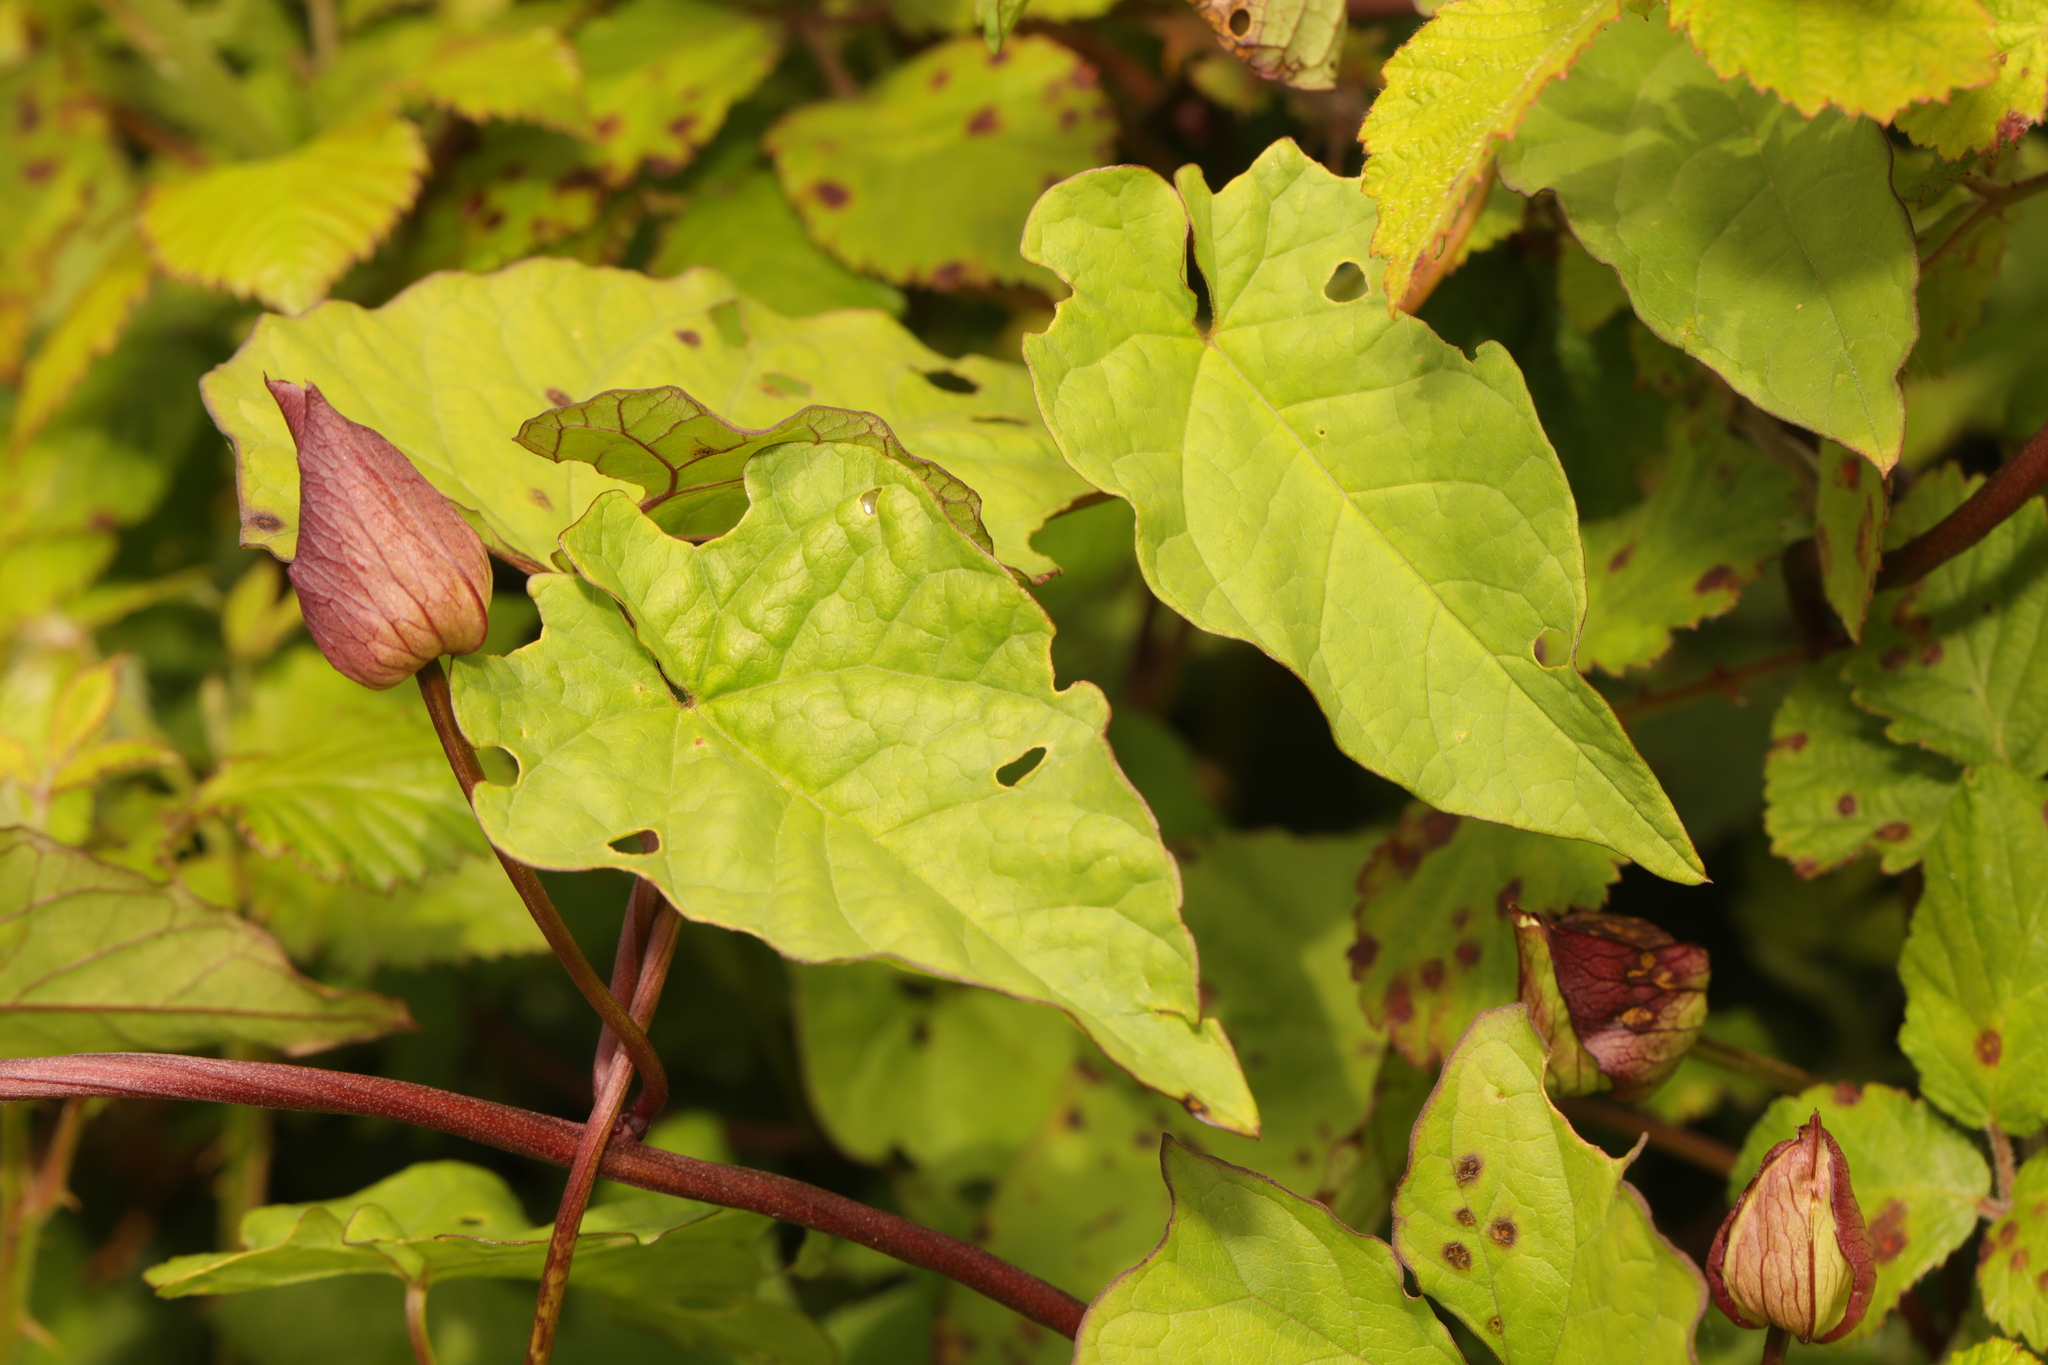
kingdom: Plantae
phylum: Tracheophyta
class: Magnoliopsida
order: Solanales
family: Convolvulaceae
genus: Calystegia
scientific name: Calystegia silvatica
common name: Large bindweed
